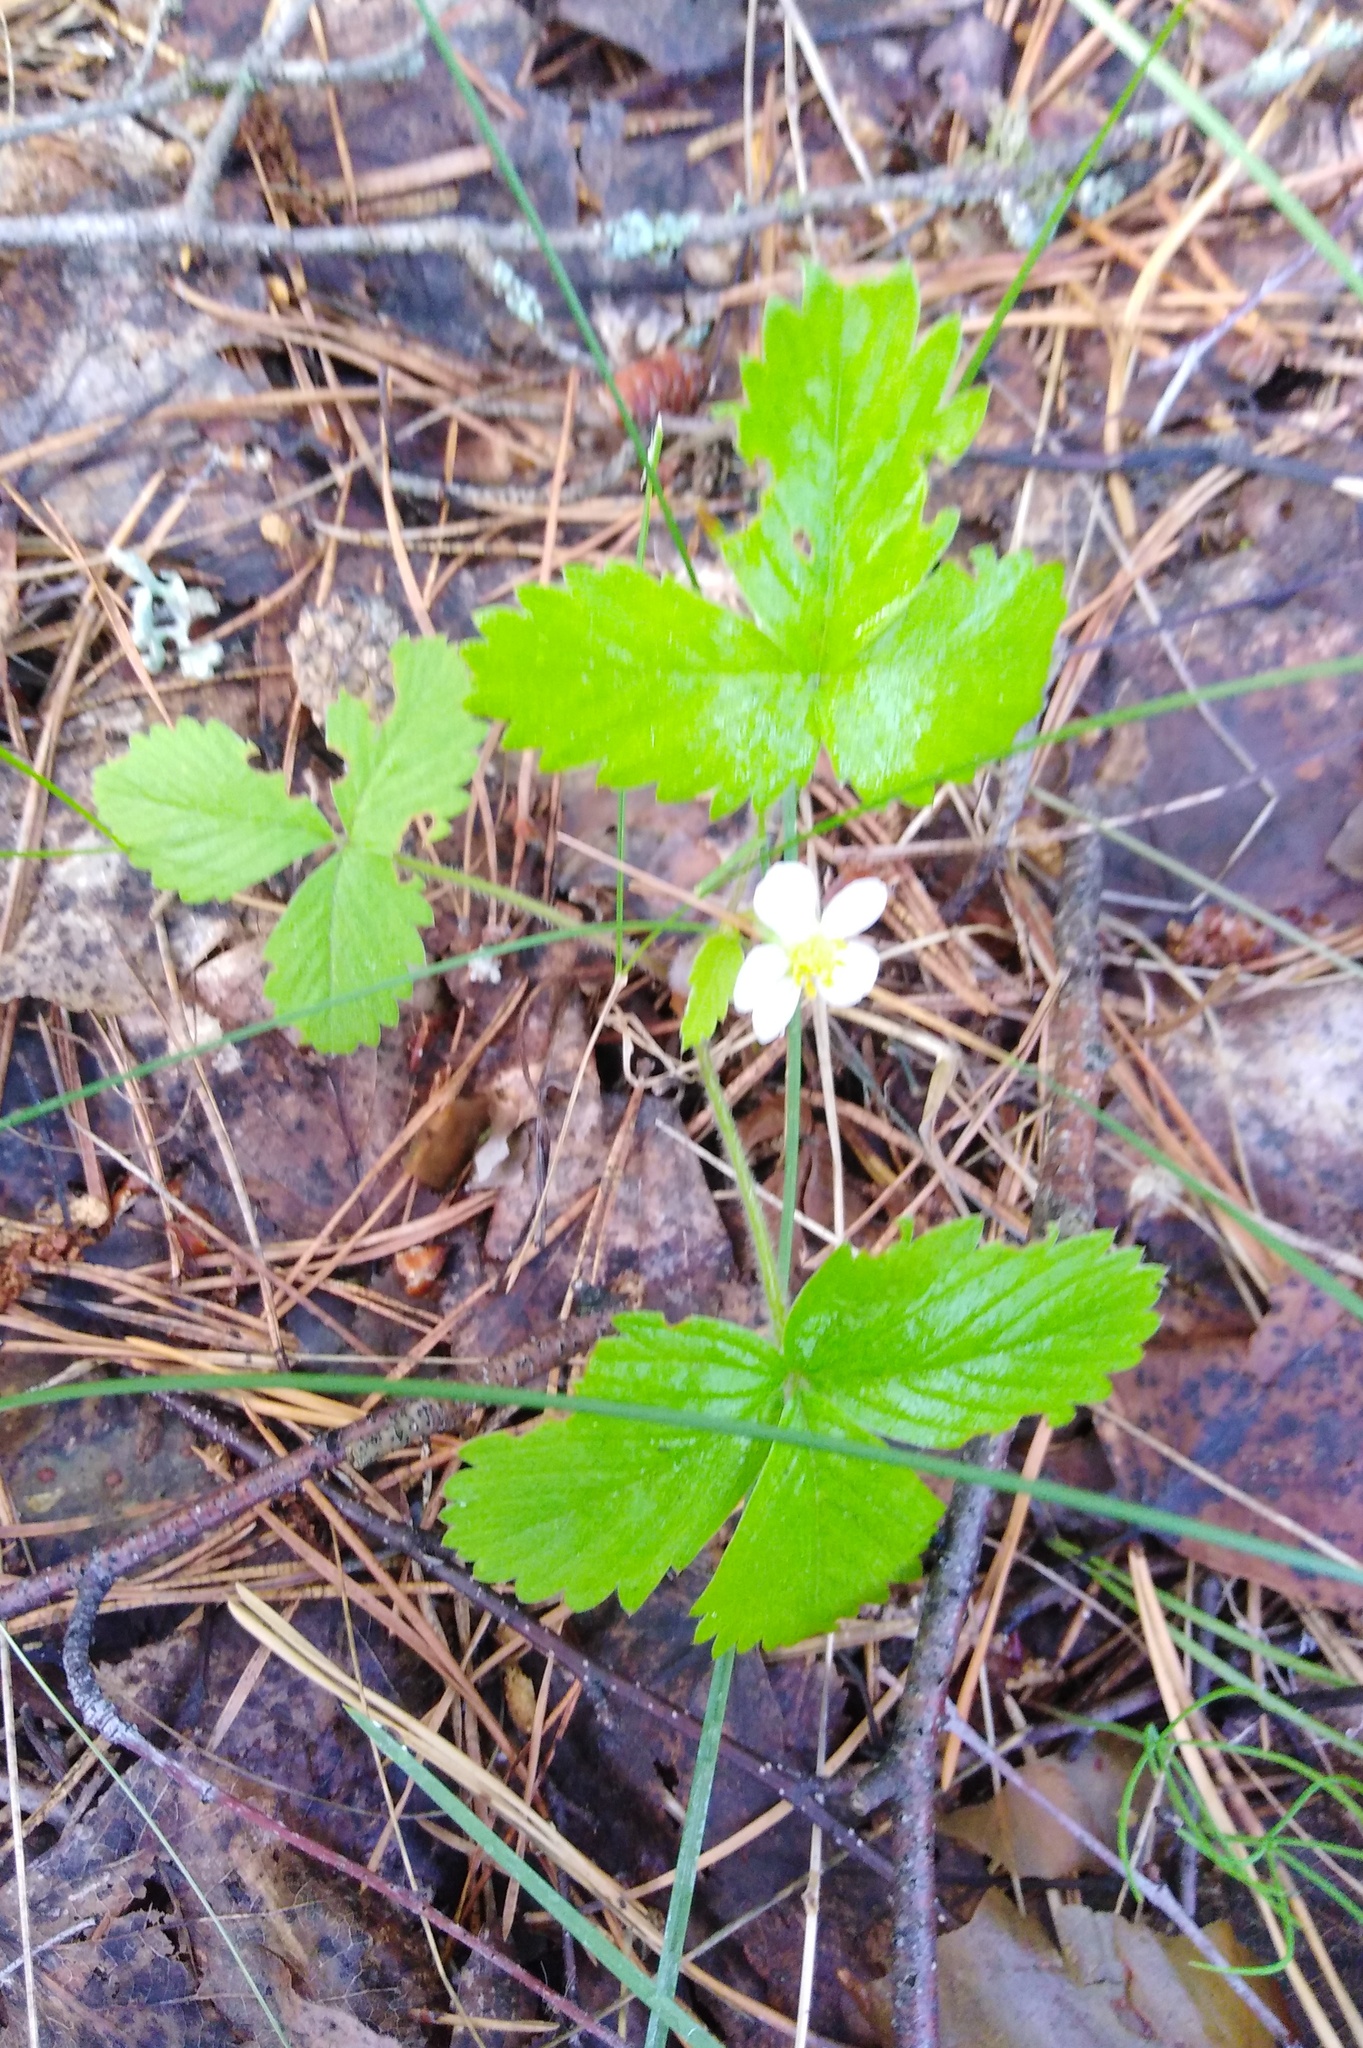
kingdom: Plantae
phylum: Tracheophyta
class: Magnoliopsida
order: Rosales
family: Rosaceae
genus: Fragaria
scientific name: Fragaria vesca
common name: Wild strawberry
